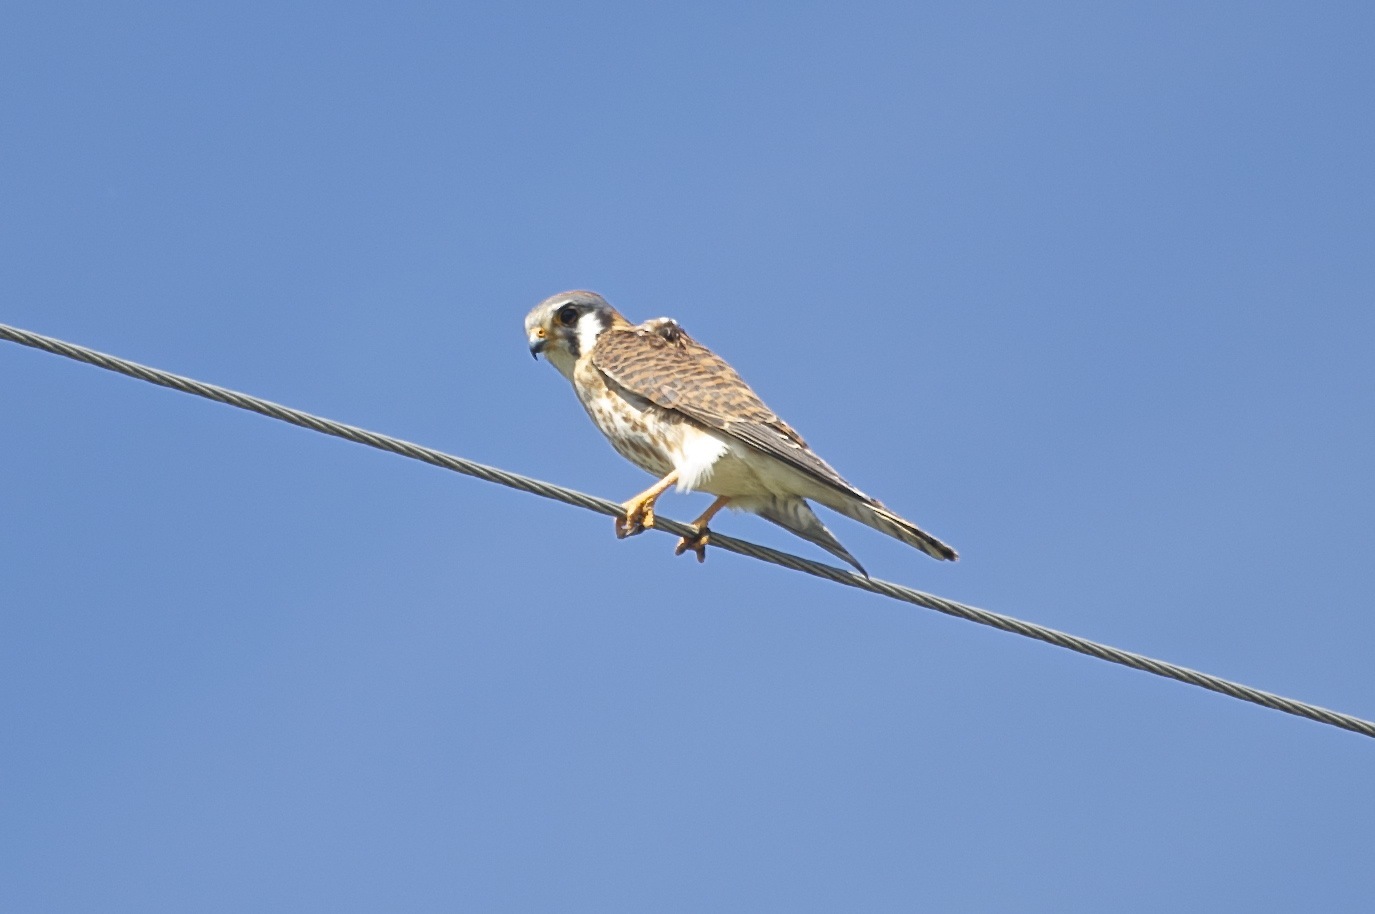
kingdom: Animalia
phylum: Chordata
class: Aves
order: Falconiformes
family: Falconidae
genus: Falco
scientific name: Falco sparverius
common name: American kestrel
